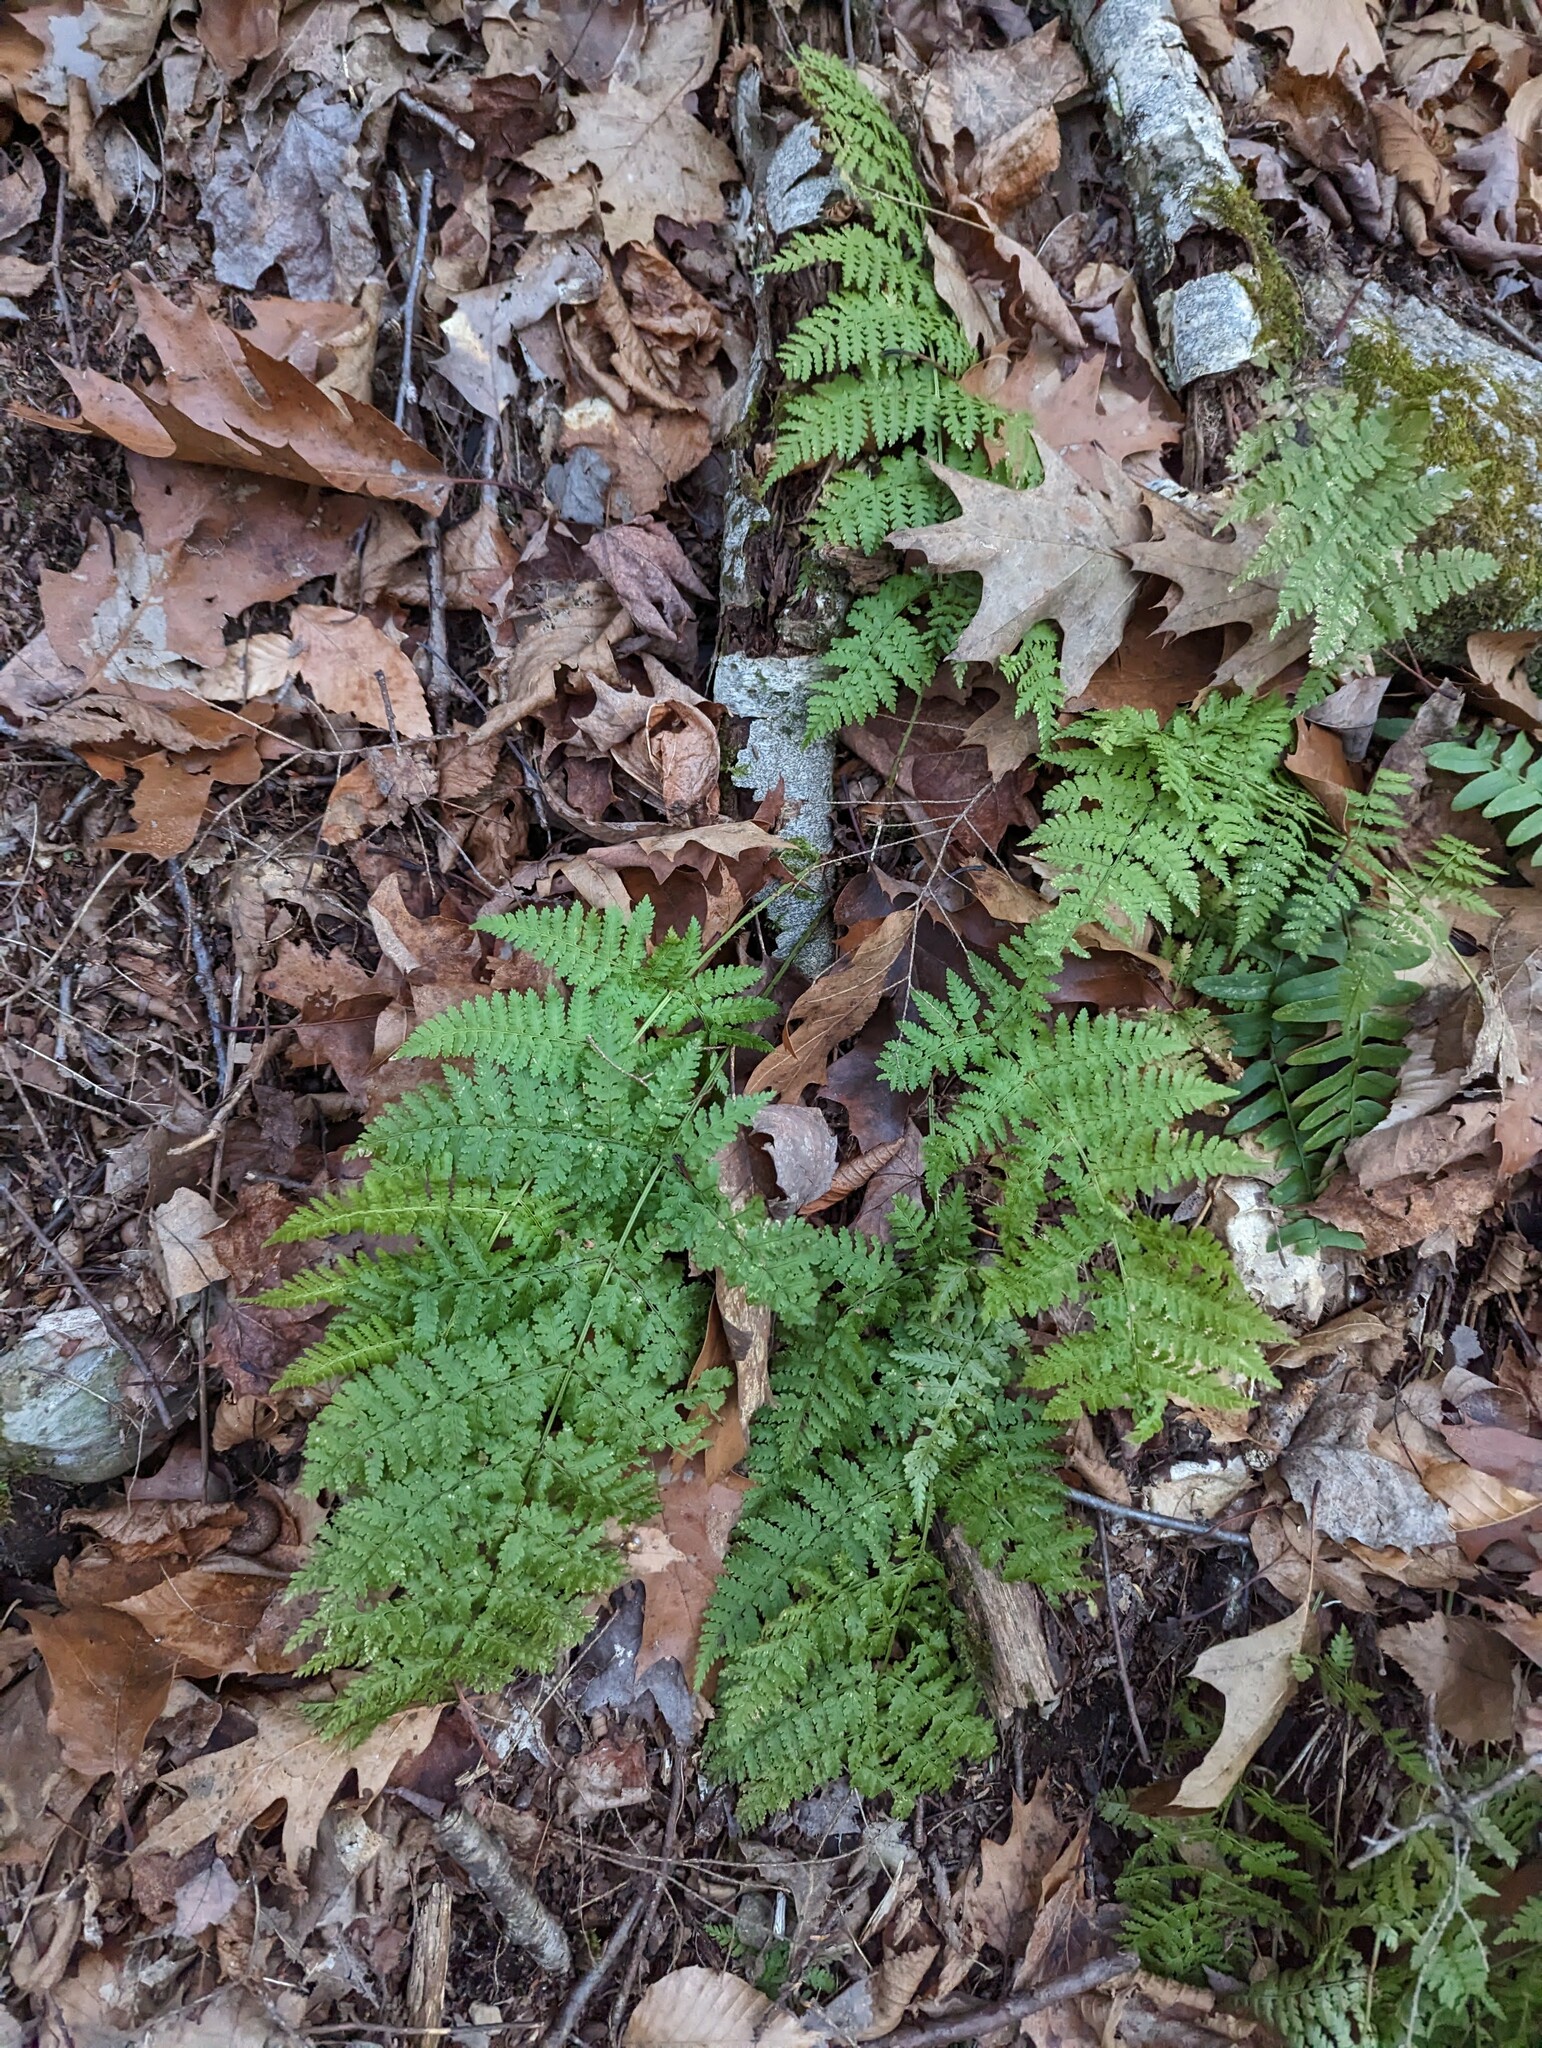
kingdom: Plantae
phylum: Tracheophyta
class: Polypodiopsida
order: Polypodiales
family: Dryopteridaceae
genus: Dryopteris
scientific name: Dryopteris intermedia
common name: Evergreen wood fern
